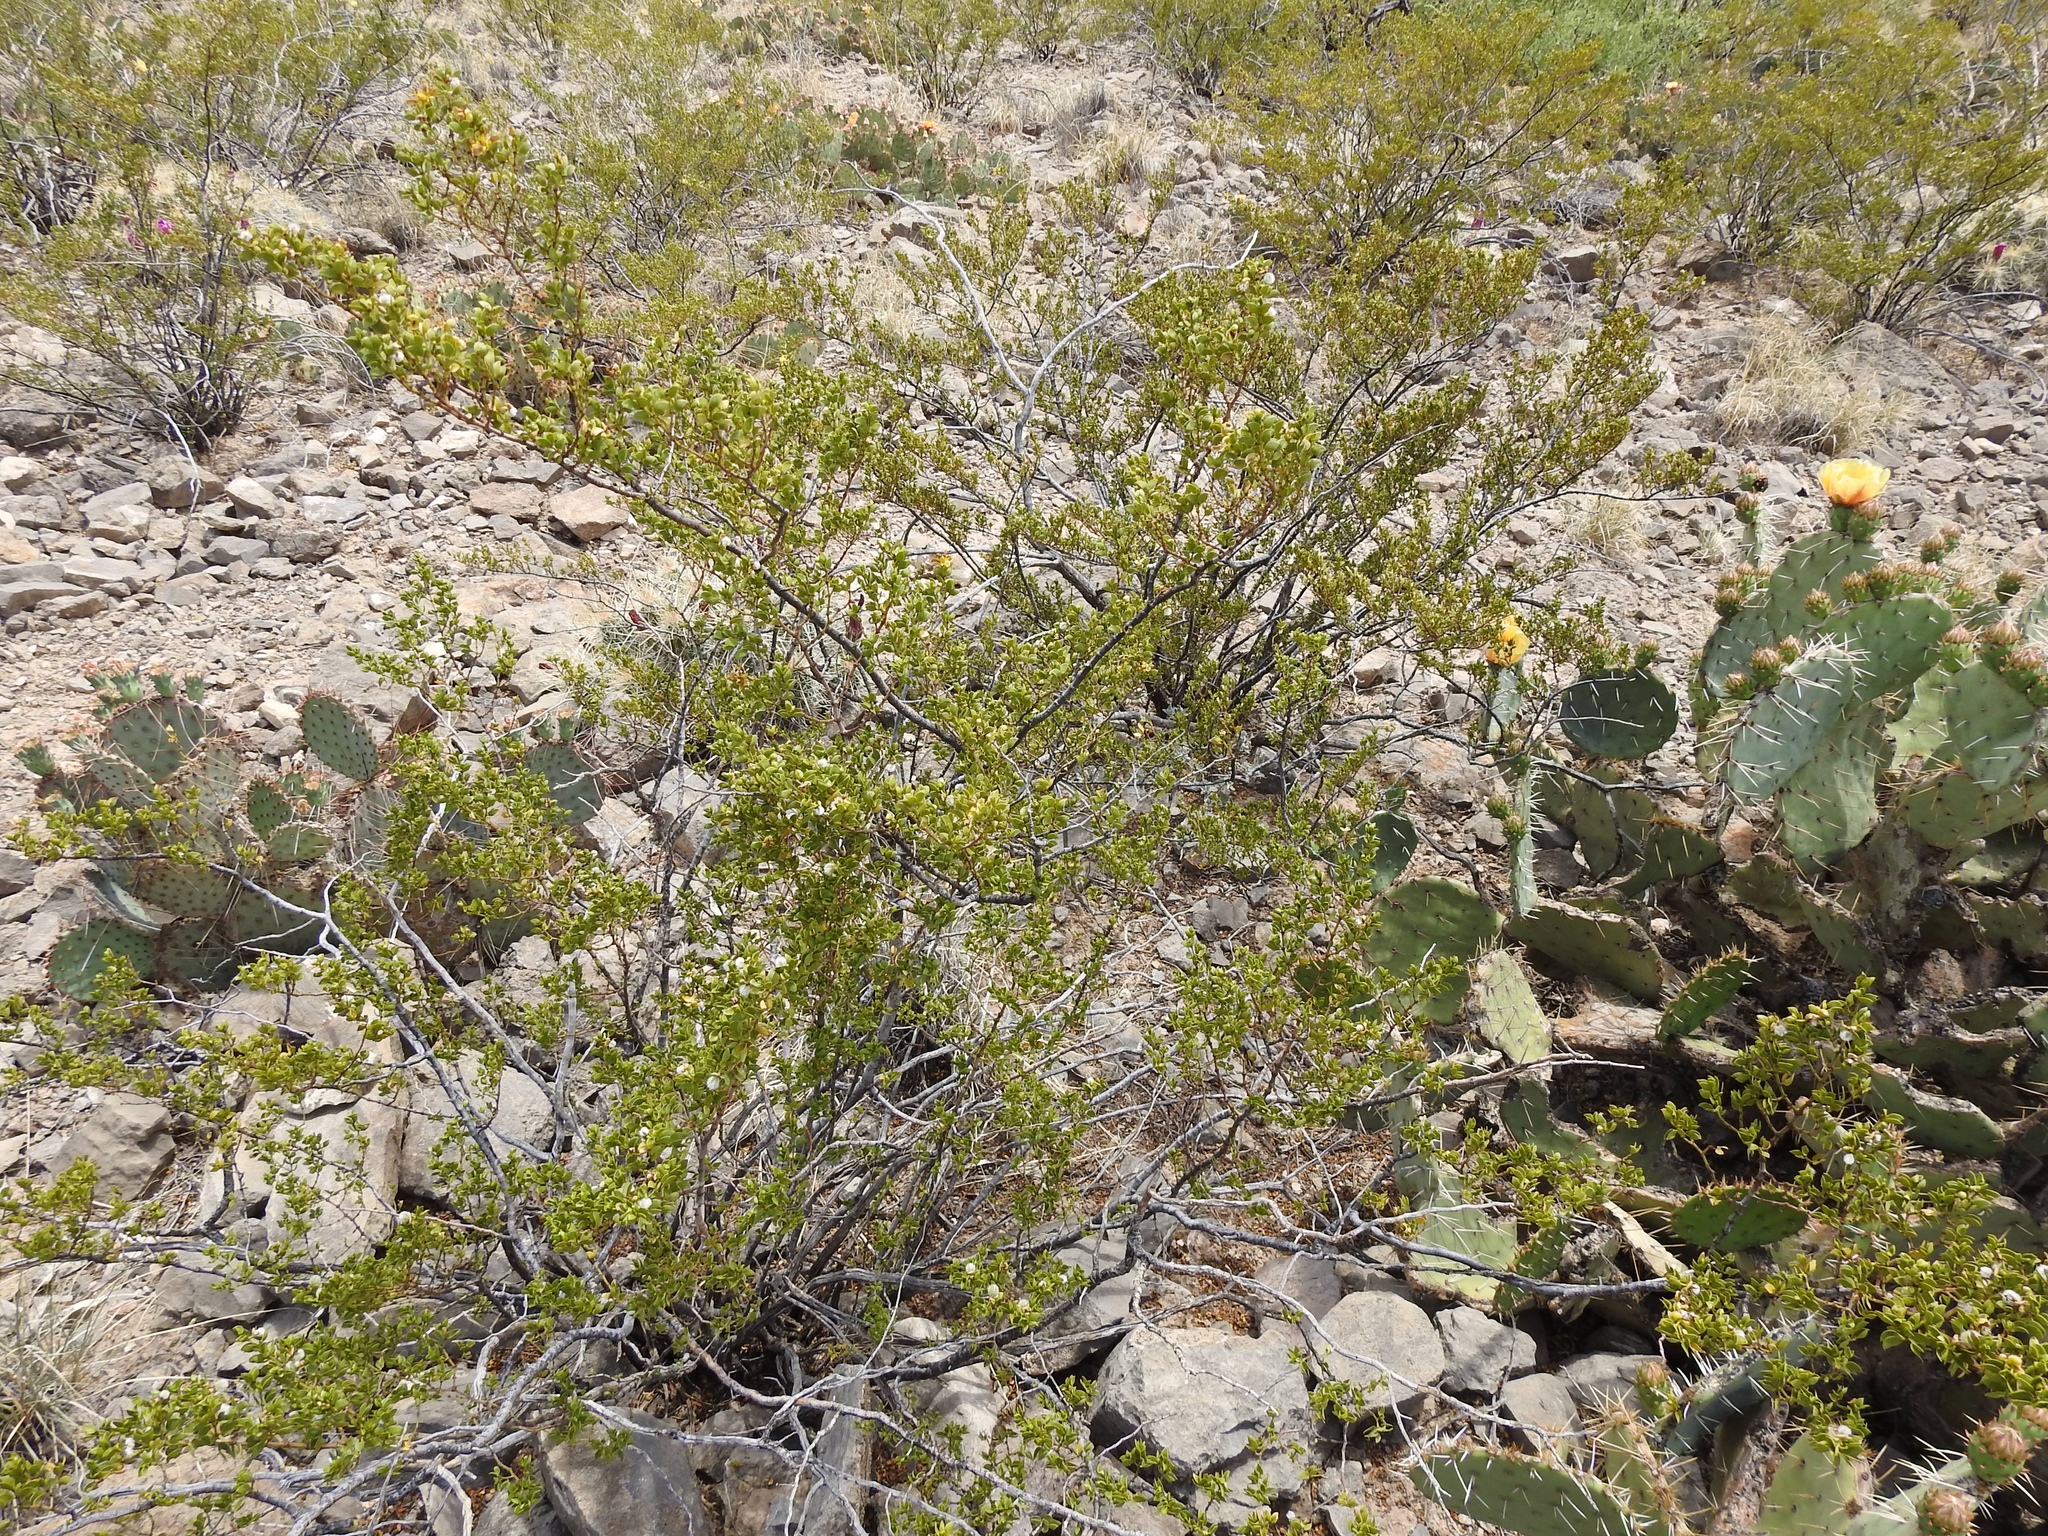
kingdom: Plantae
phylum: Tracheophyta
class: Magnoliopsida
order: Zygophyllales
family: Zygophyllaceae
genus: Larrea
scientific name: Larrea tridentata
